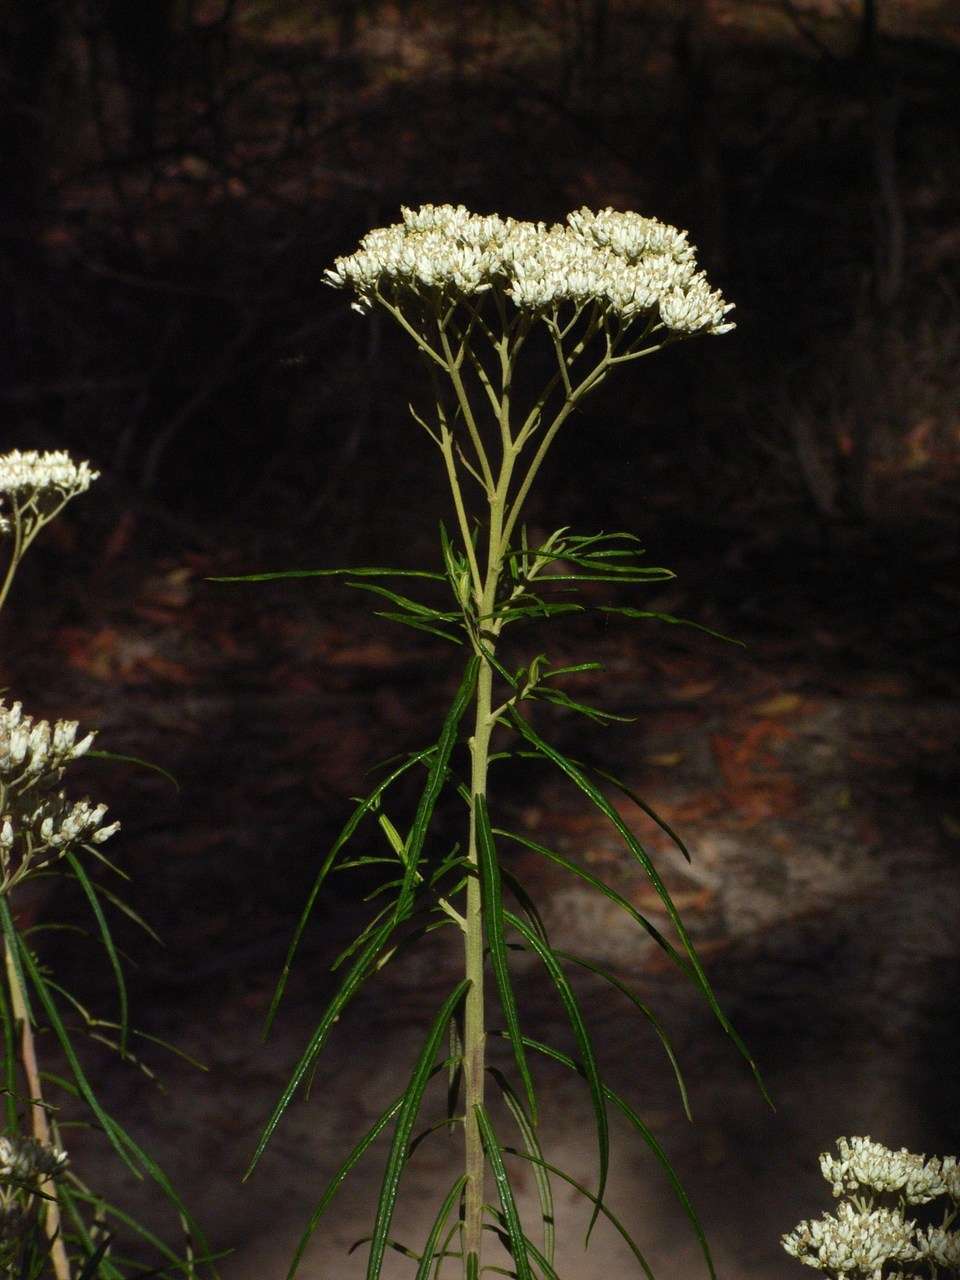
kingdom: Plantae
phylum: Tracheophyta
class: Magnoliopsida
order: Asterales
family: Asteraceae
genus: Cassinia
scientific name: Cassinia longifolia
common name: Longleaf-dogwood
